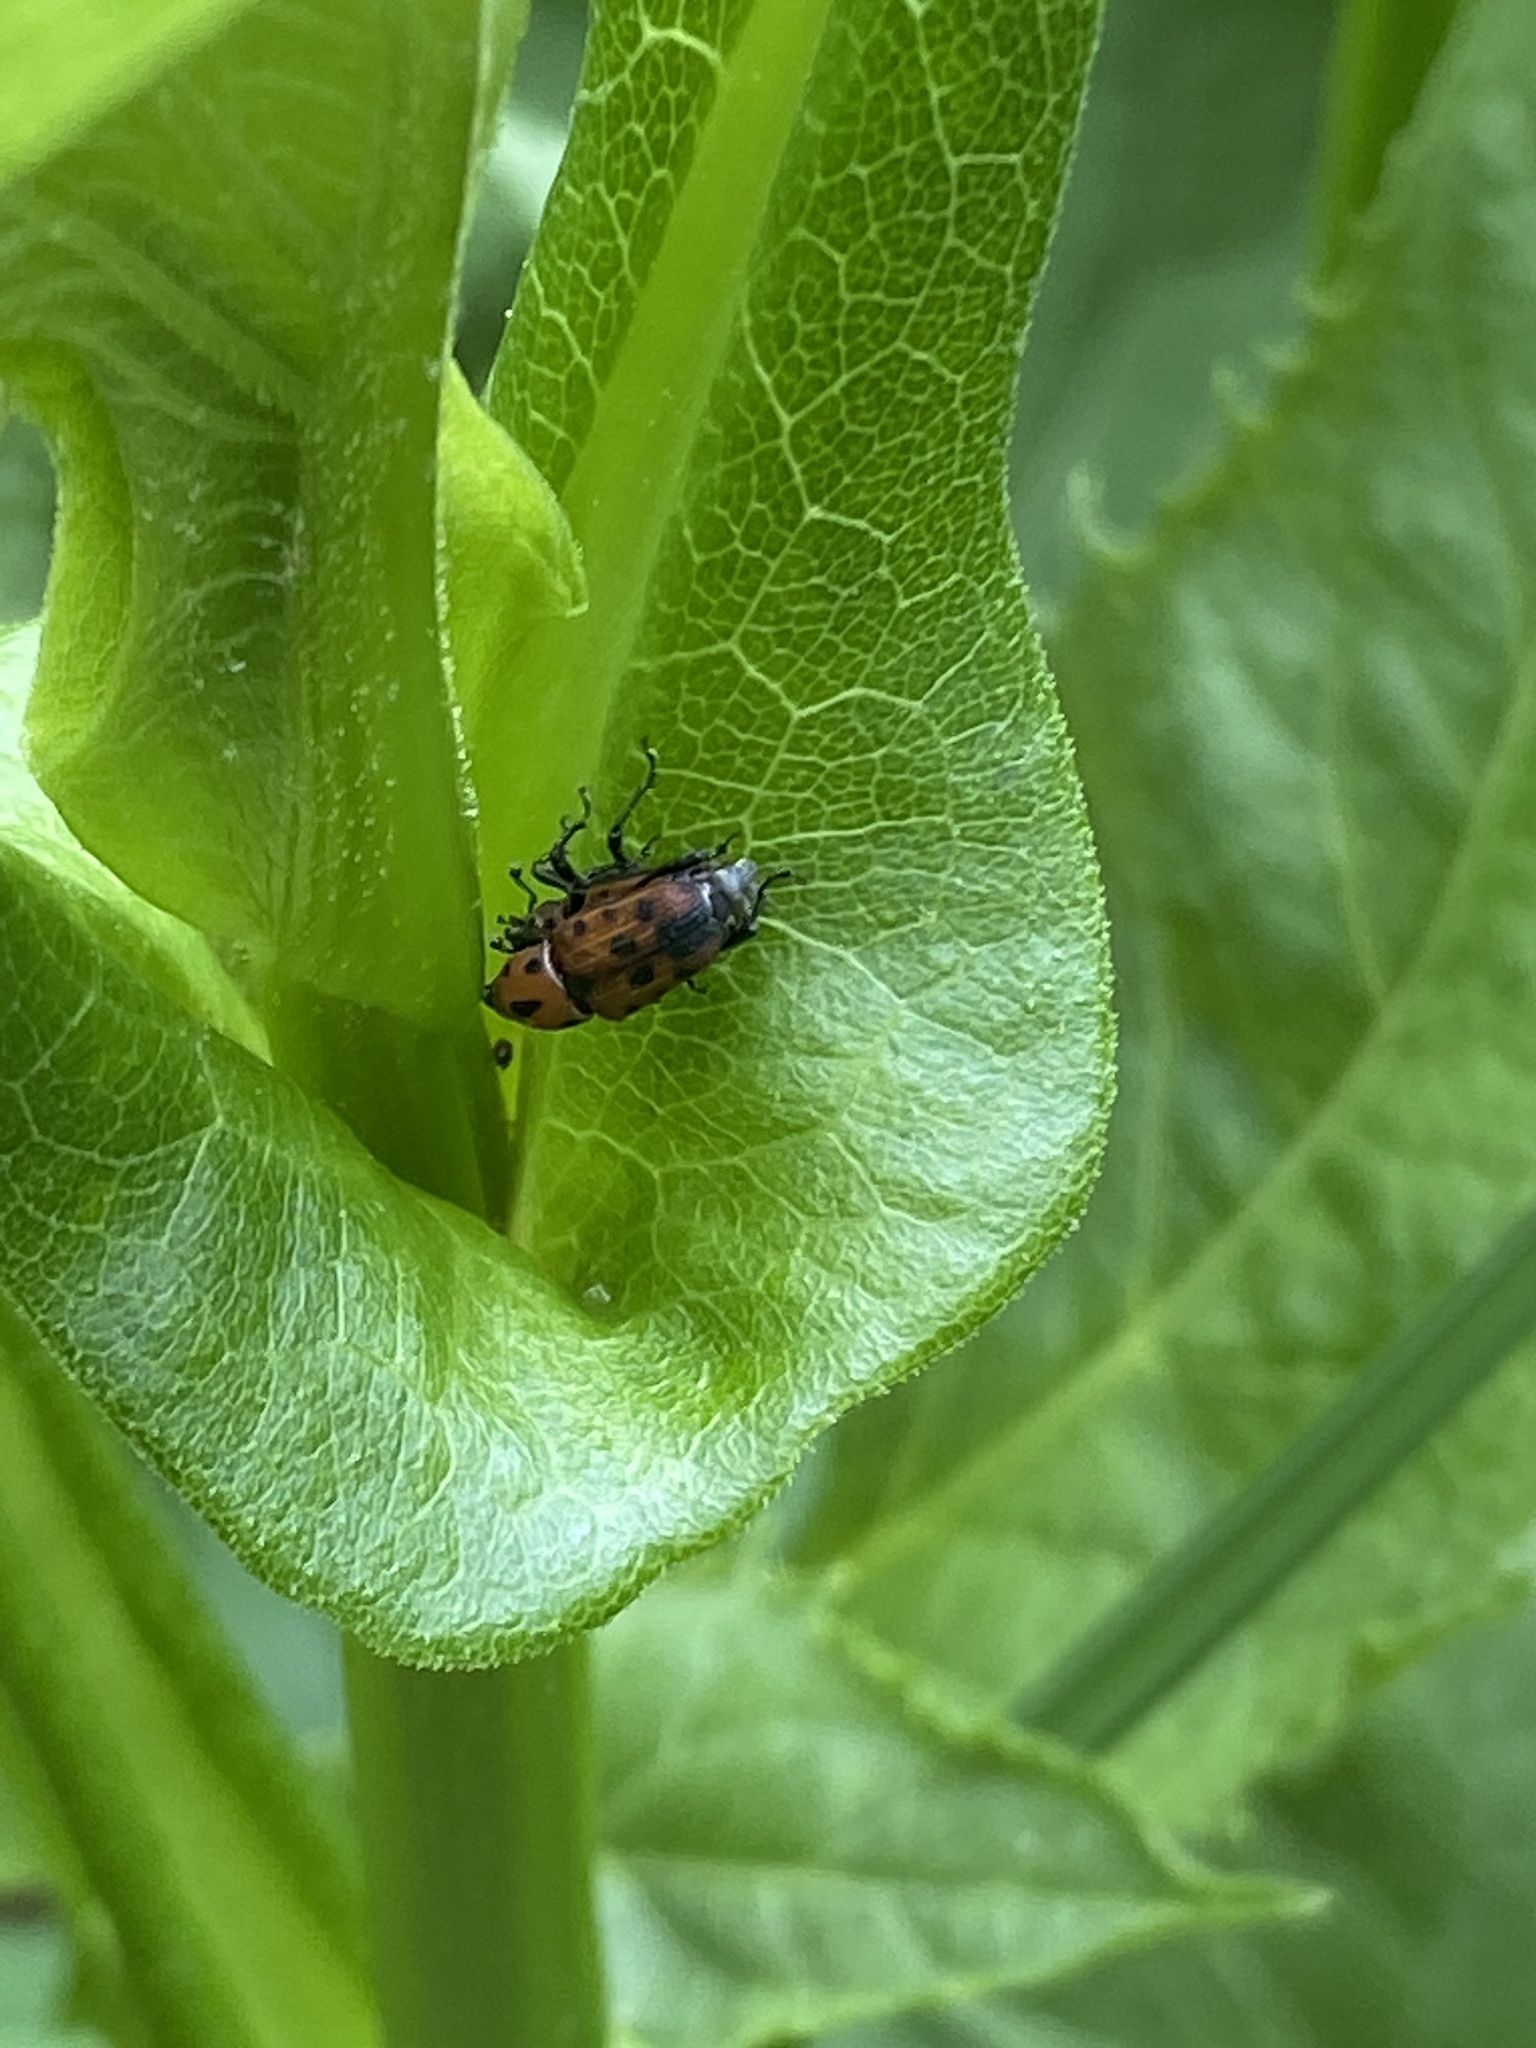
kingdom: Animalia
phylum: Arthropoda
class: Insecta
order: Coleoptera
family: Dryophthoridae
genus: Rhodobaenus
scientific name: Rhodobaenus quinquepunctatus
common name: Cocklebur weevil
